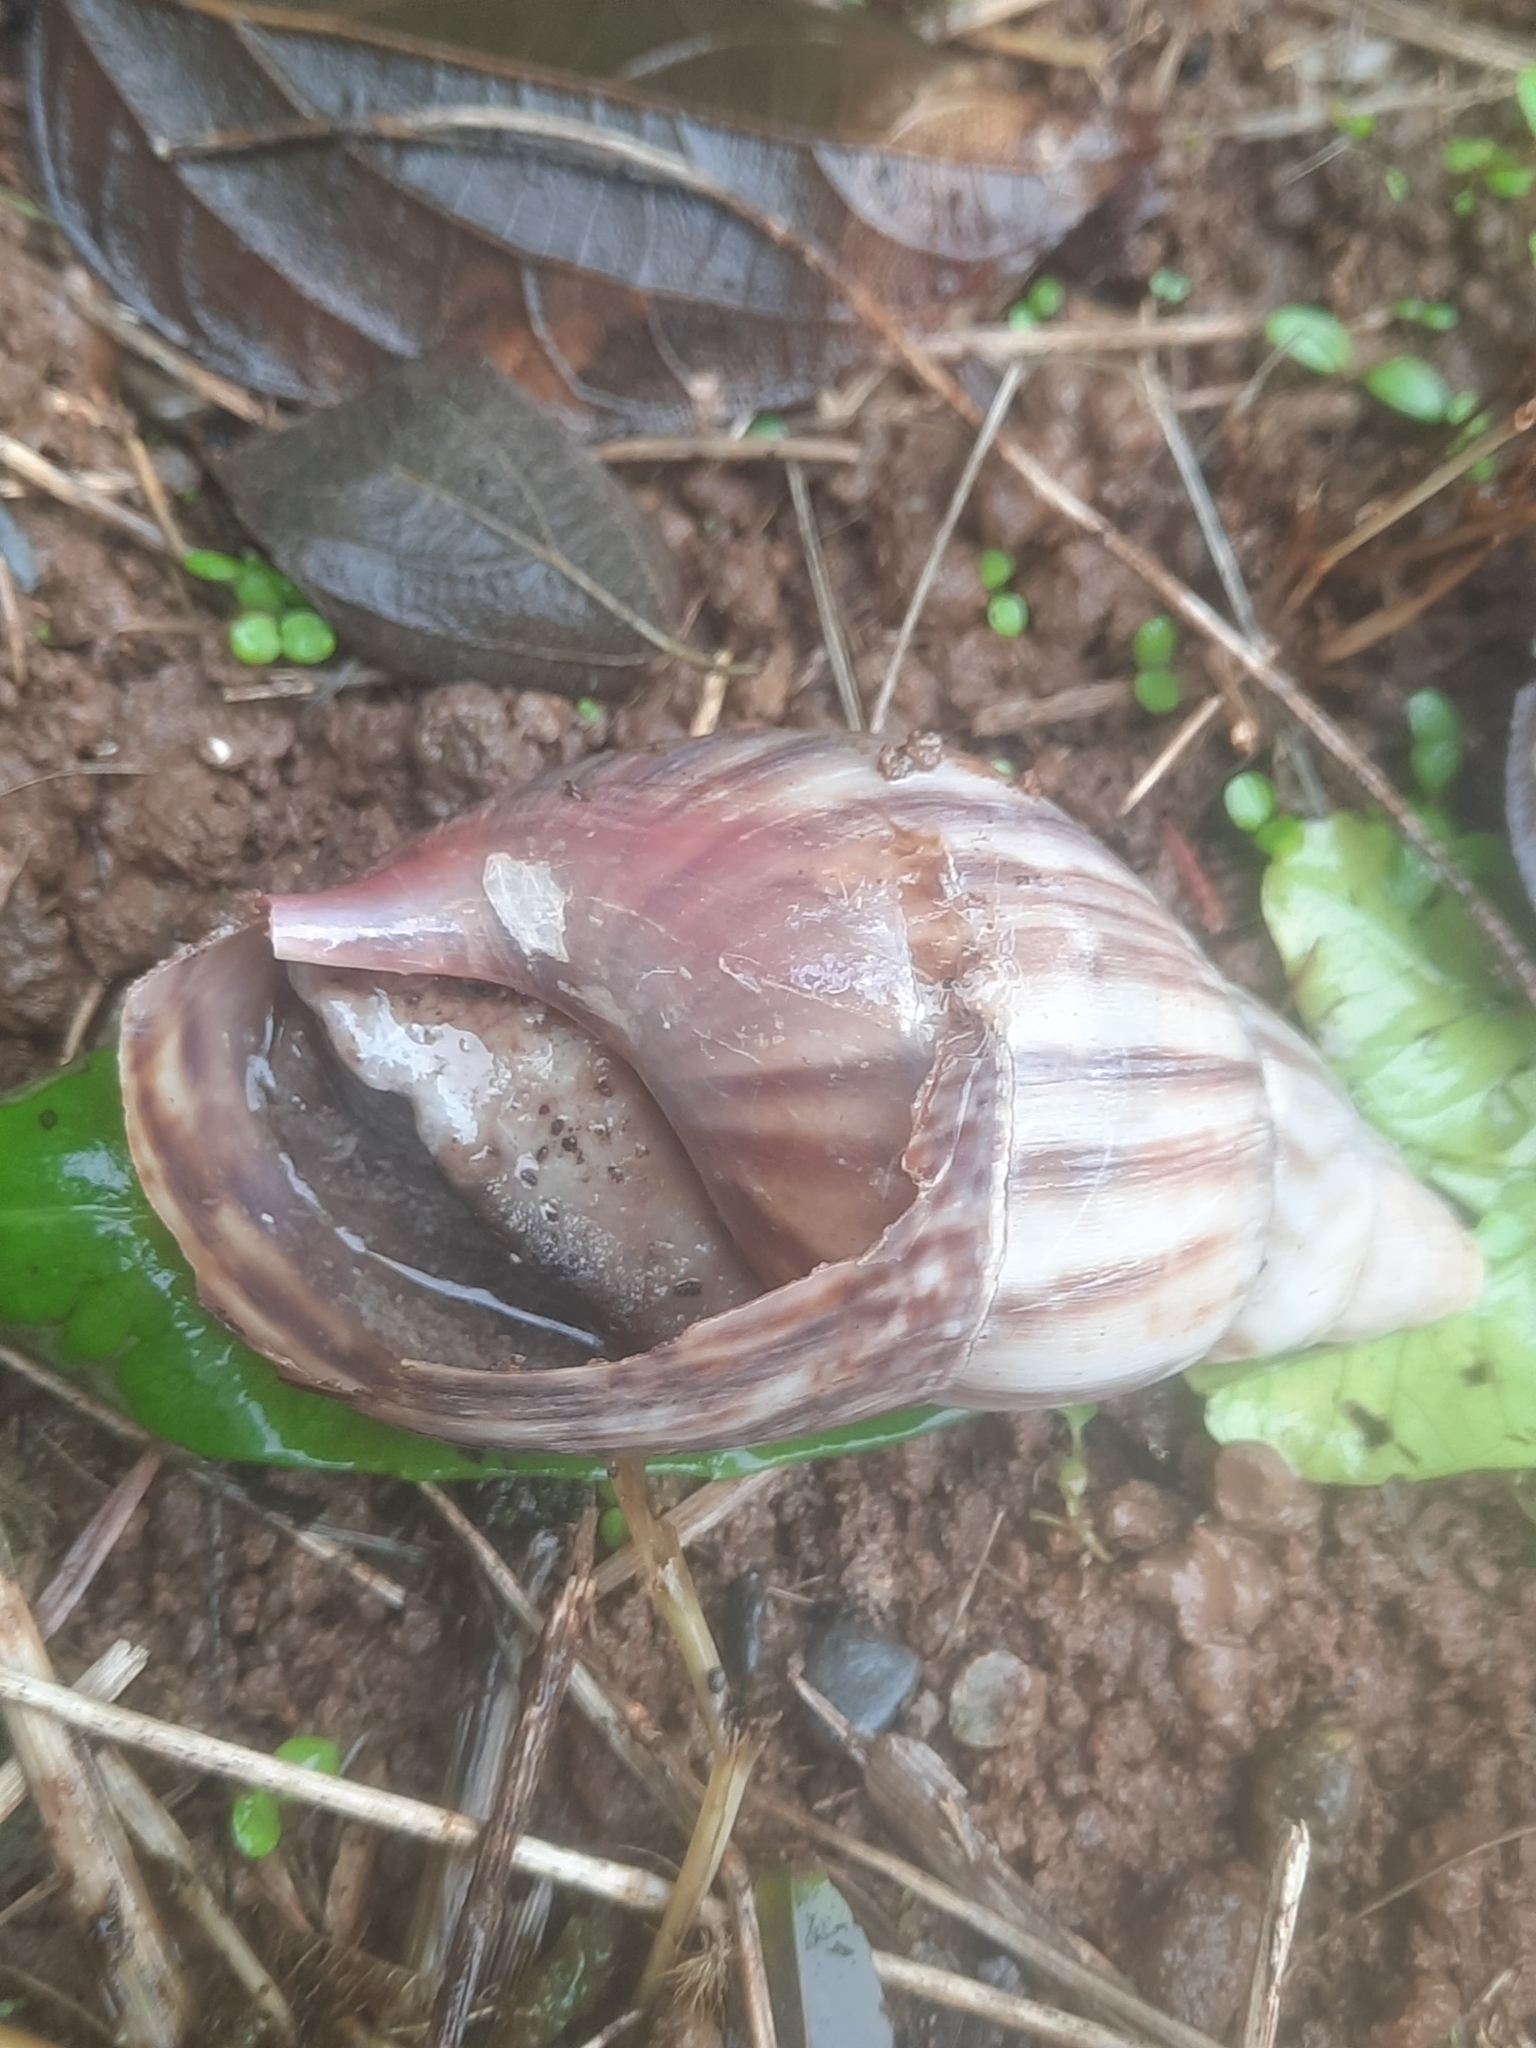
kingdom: Animalia
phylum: Mollusca
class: Gastropoda
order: Stylommatophora
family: Achatinidae
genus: Lissachatina
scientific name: Lissachatina fulica
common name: Giant african snail
